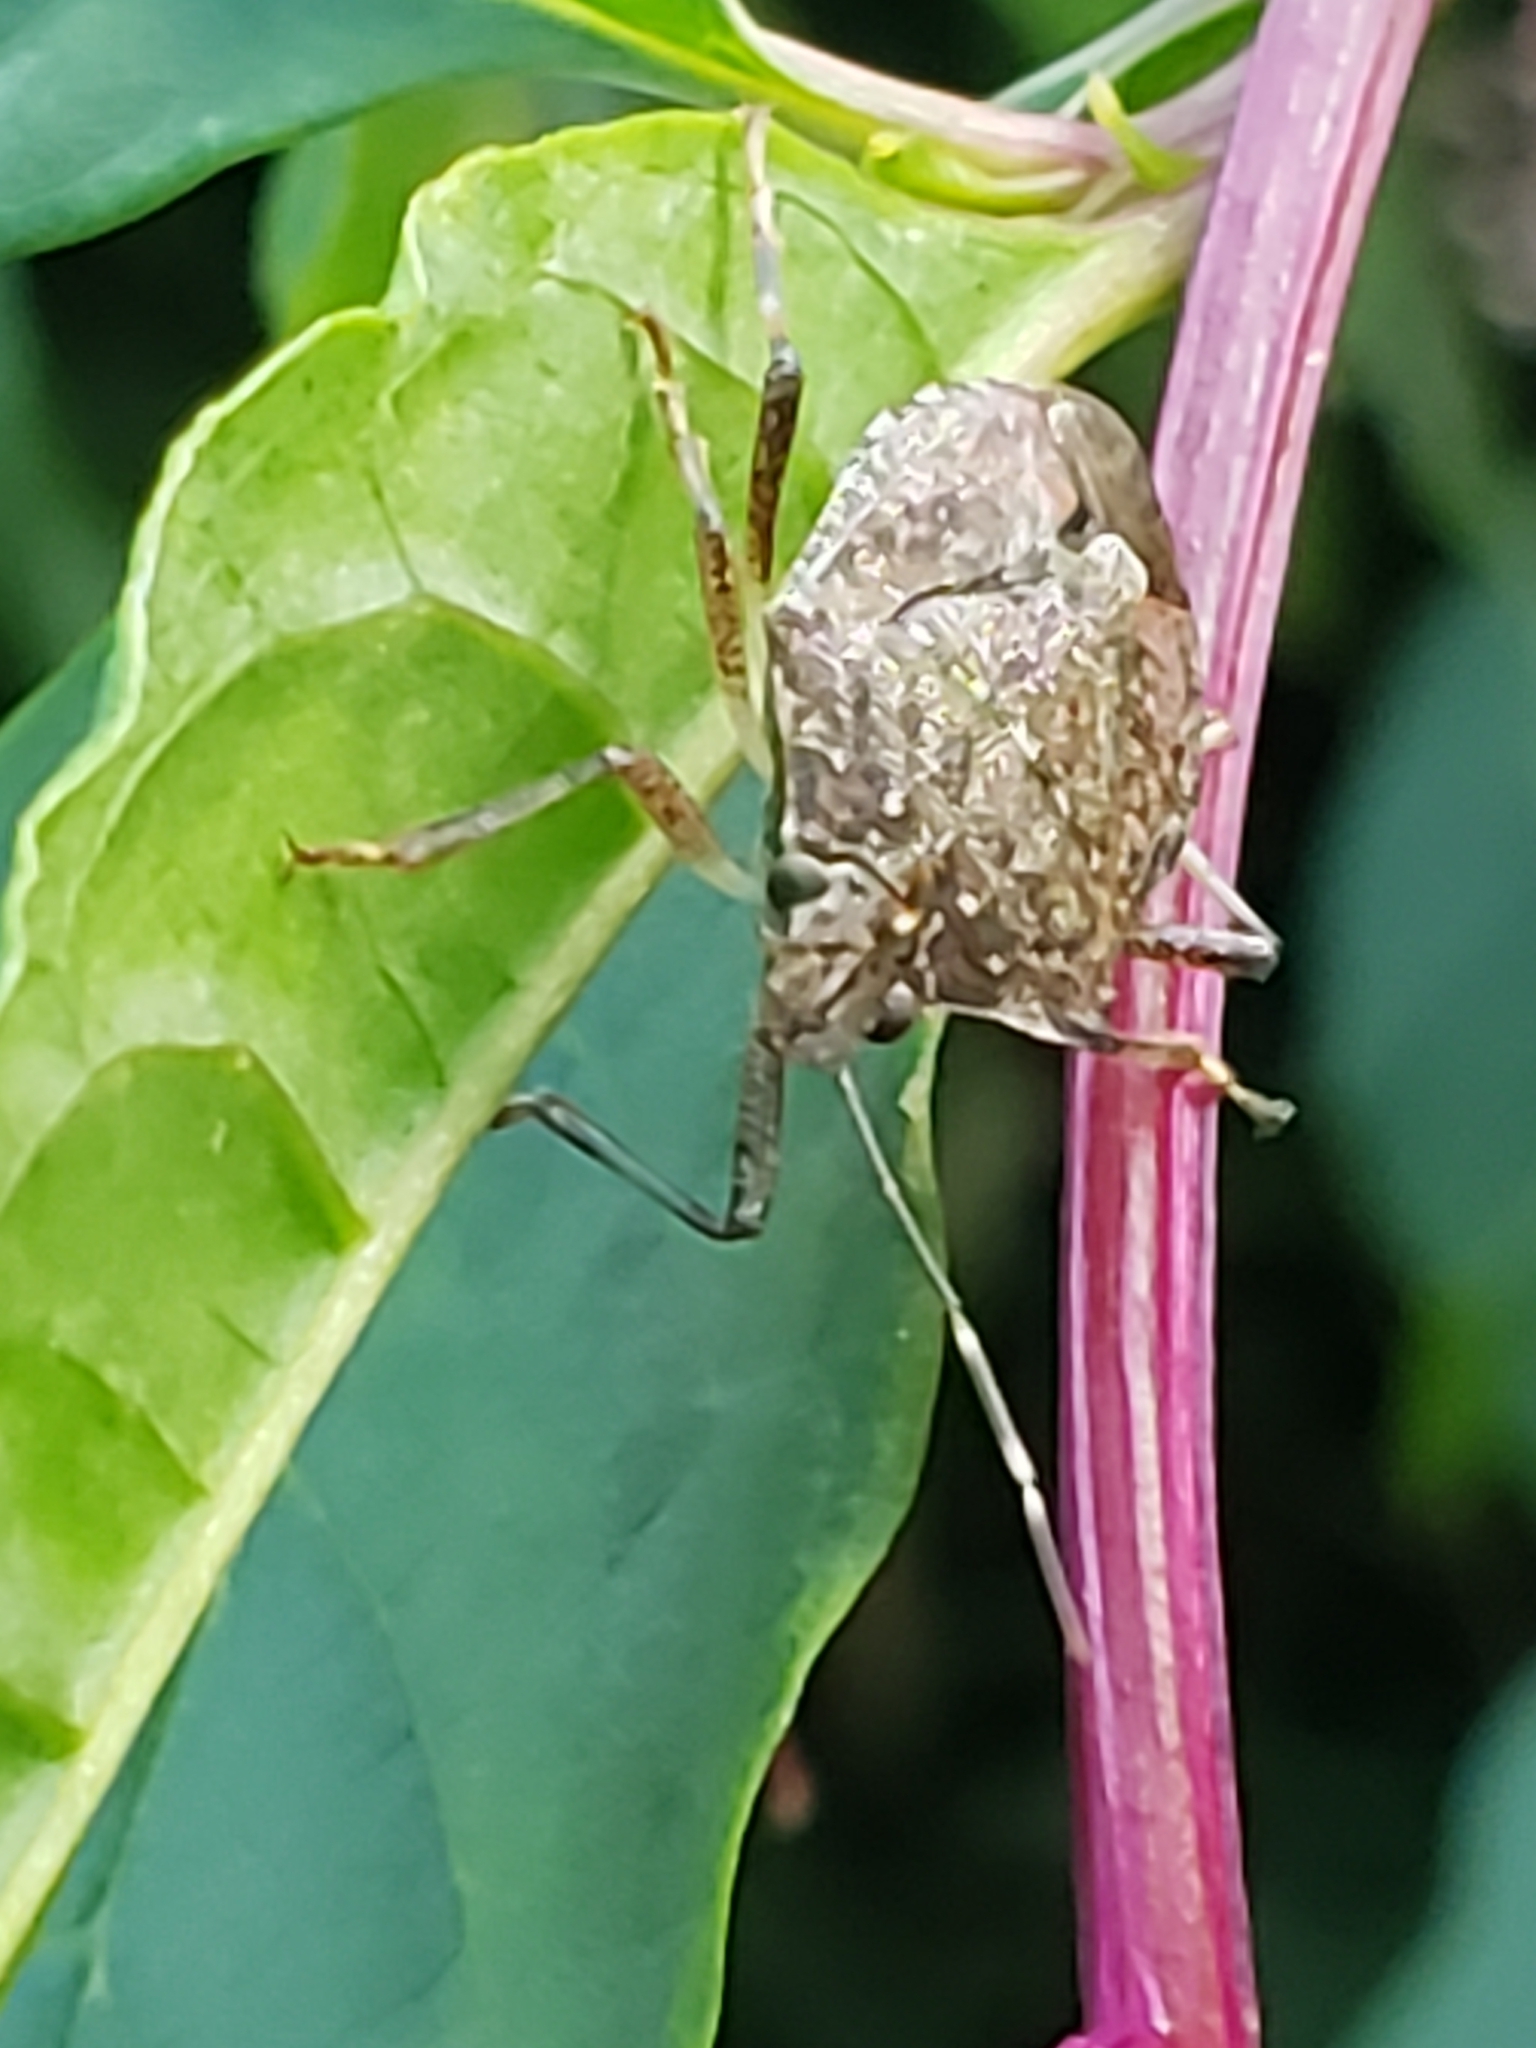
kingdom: Animalia
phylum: Arthropoda
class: Insecta
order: Hemiptera
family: Pentatomidae
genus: Halyomorpha
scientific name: Halyomorpha halys
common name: Brown marmorated stink bug
